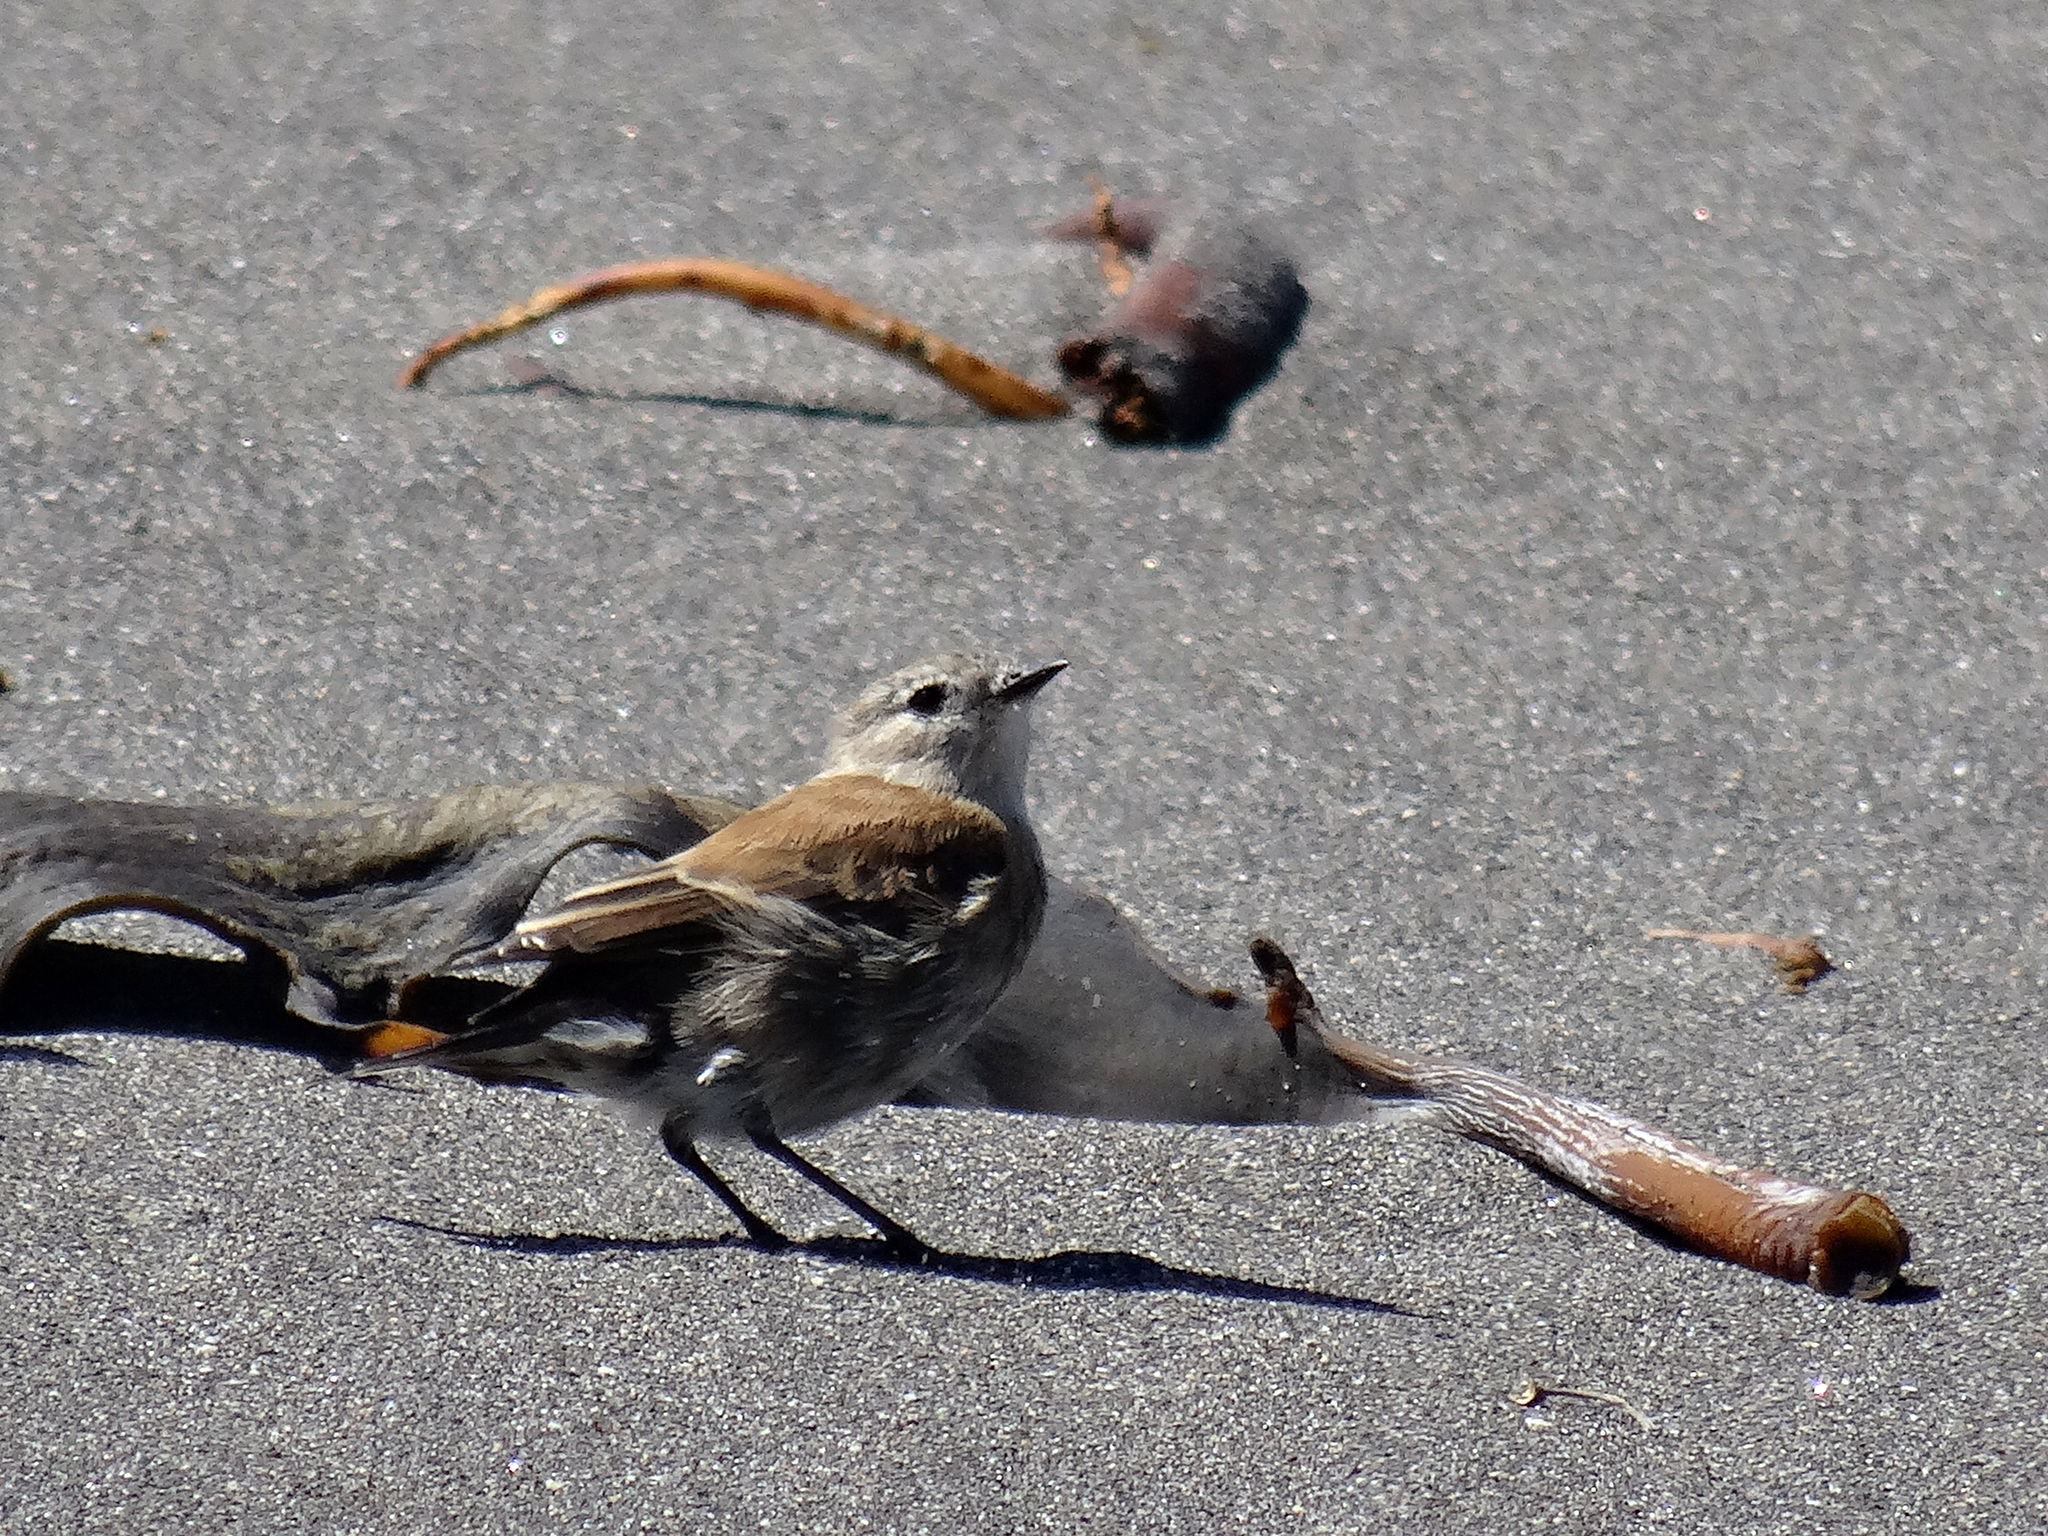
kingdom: Animalia
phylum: Chordata
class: Aves
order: Passeriformes
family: Tyrannidae
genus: Lessonia
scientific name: Lessonia rufa
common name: Austral negrito
